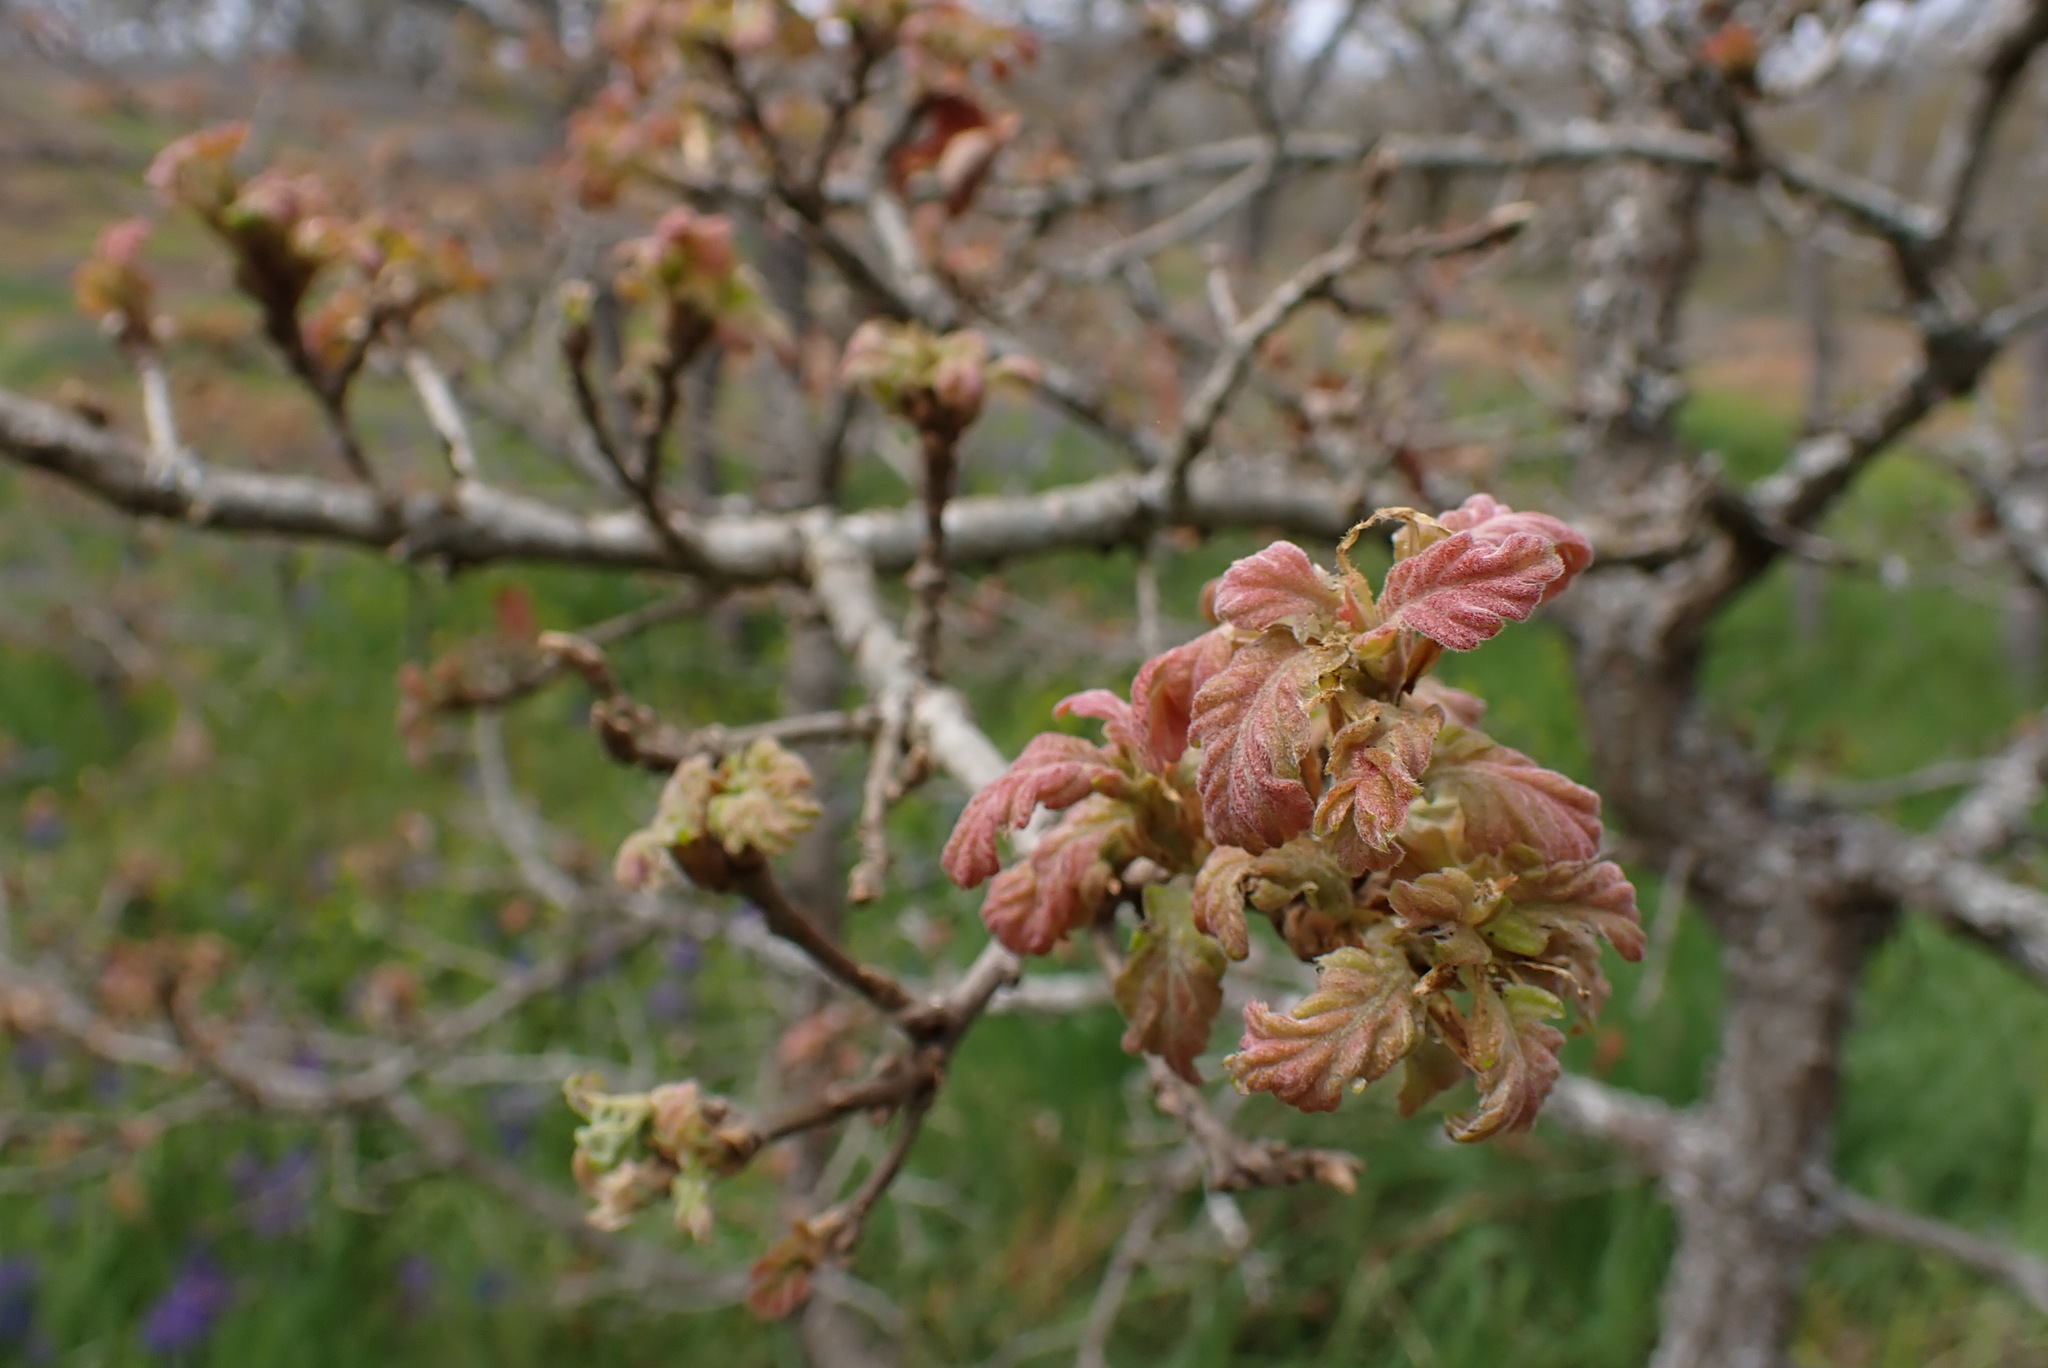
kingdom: Plantae
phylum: Tracheophyta
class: Magnoliopsida
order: Fagales
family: Fagaceae
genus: Quercus
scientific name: Quercus garryana
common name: Garry oak
